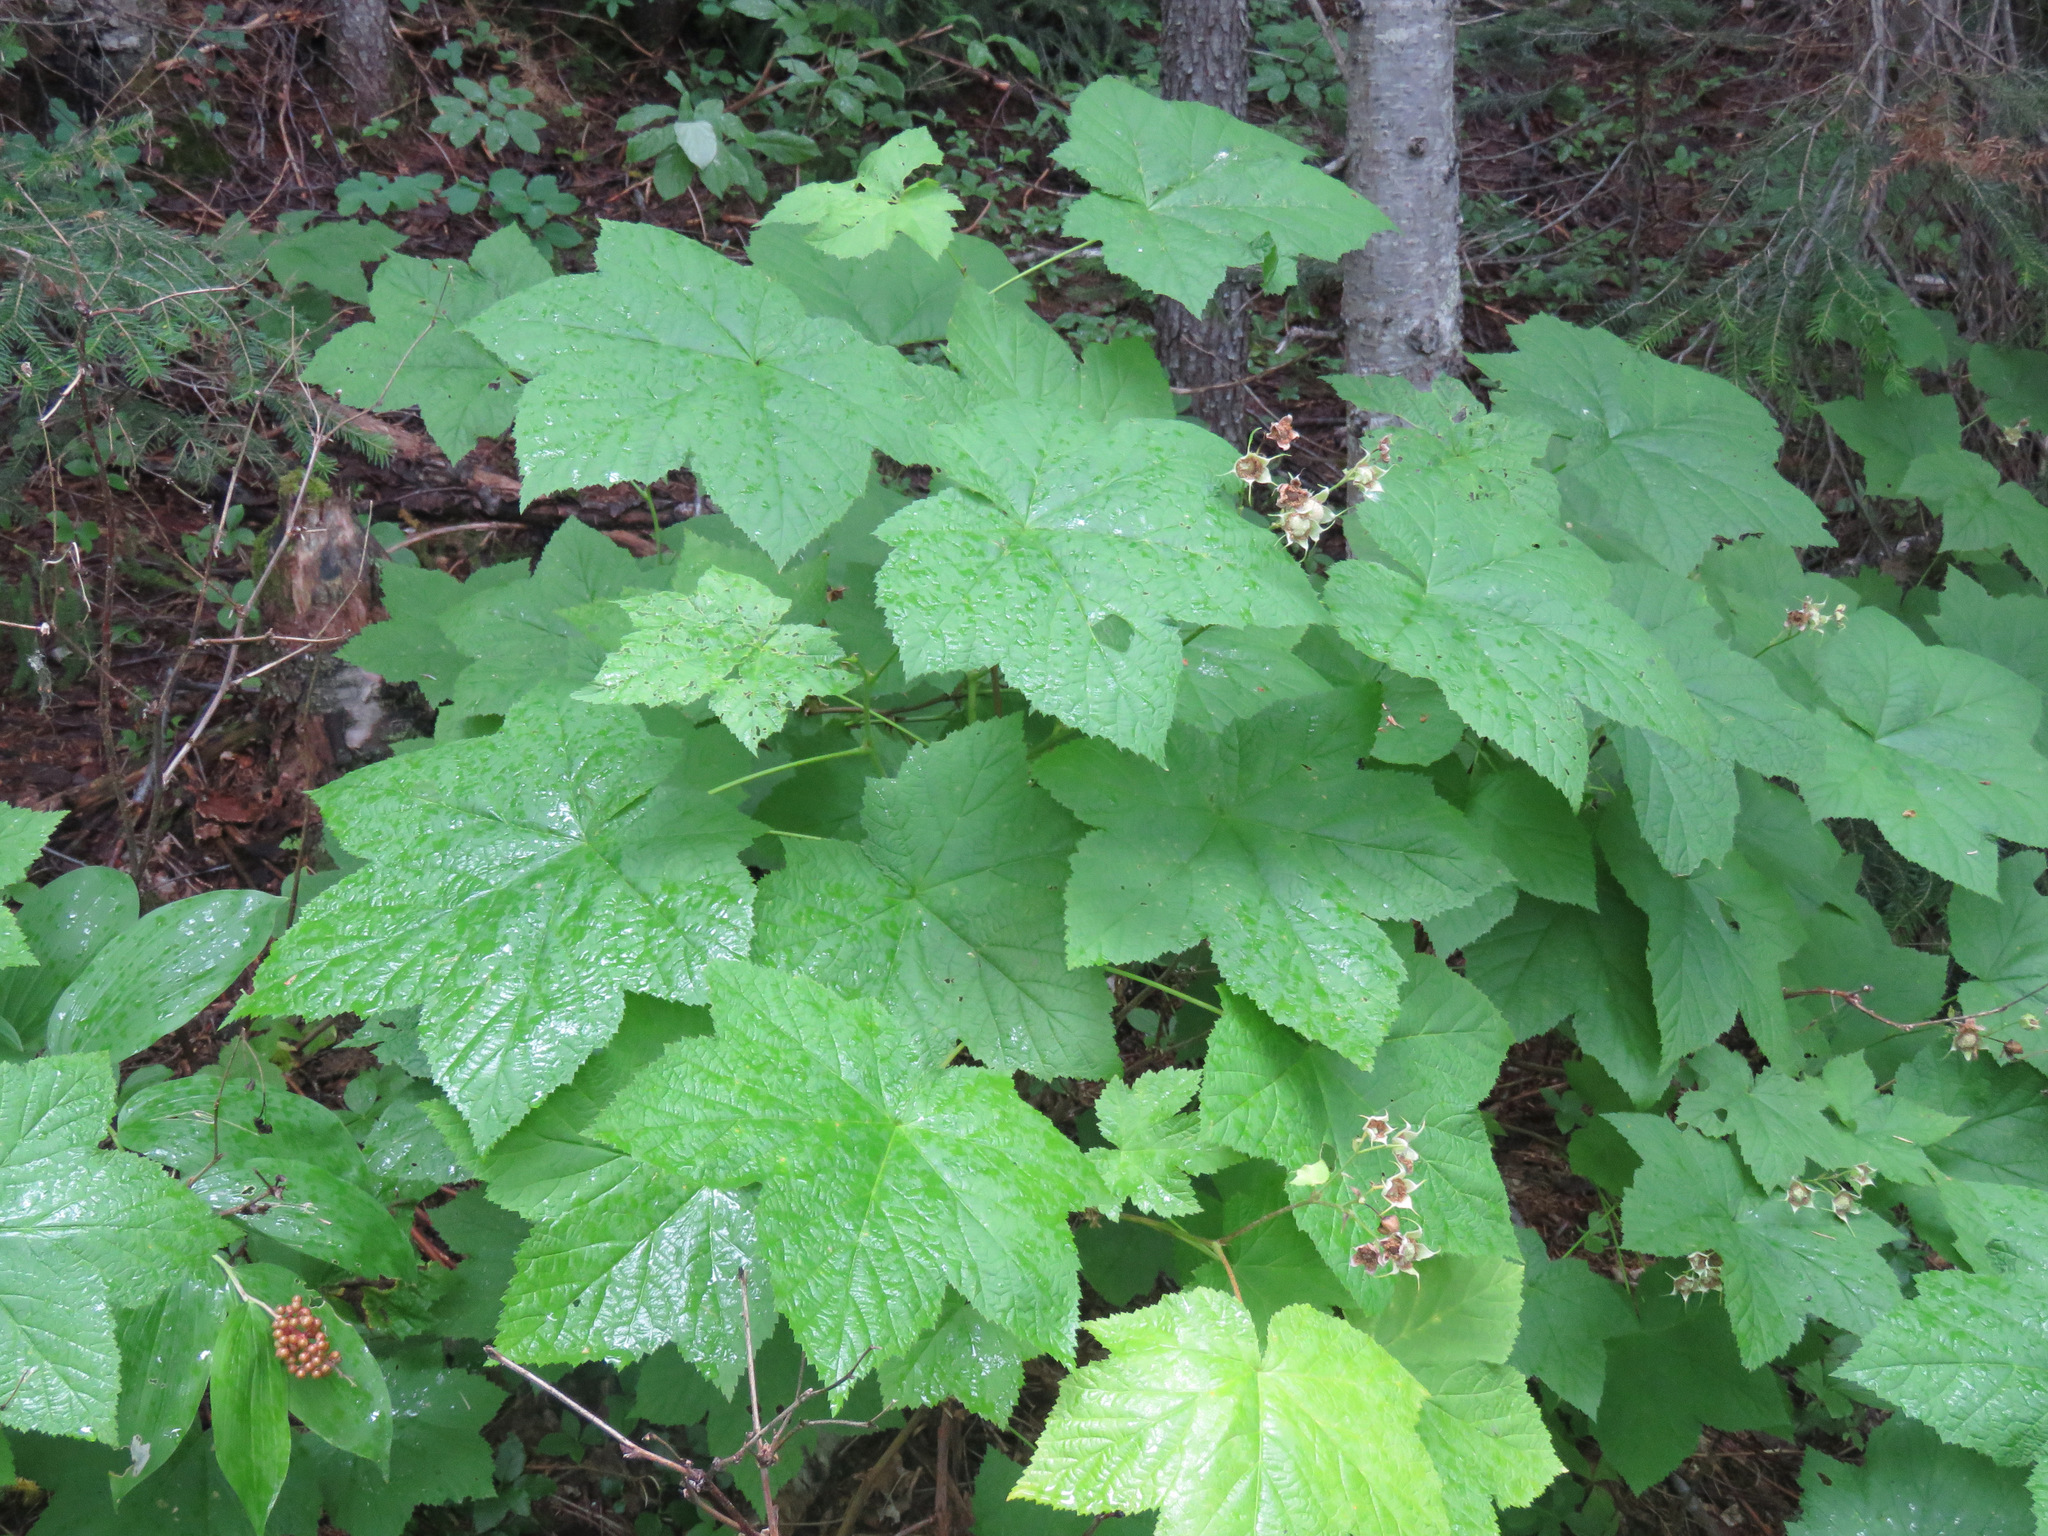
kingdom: Plantae
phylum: Tracheophyta
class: Magnoliopsida
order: Rosales
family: Rosaceae
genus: Rubus
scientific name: Rubus parviflorus
